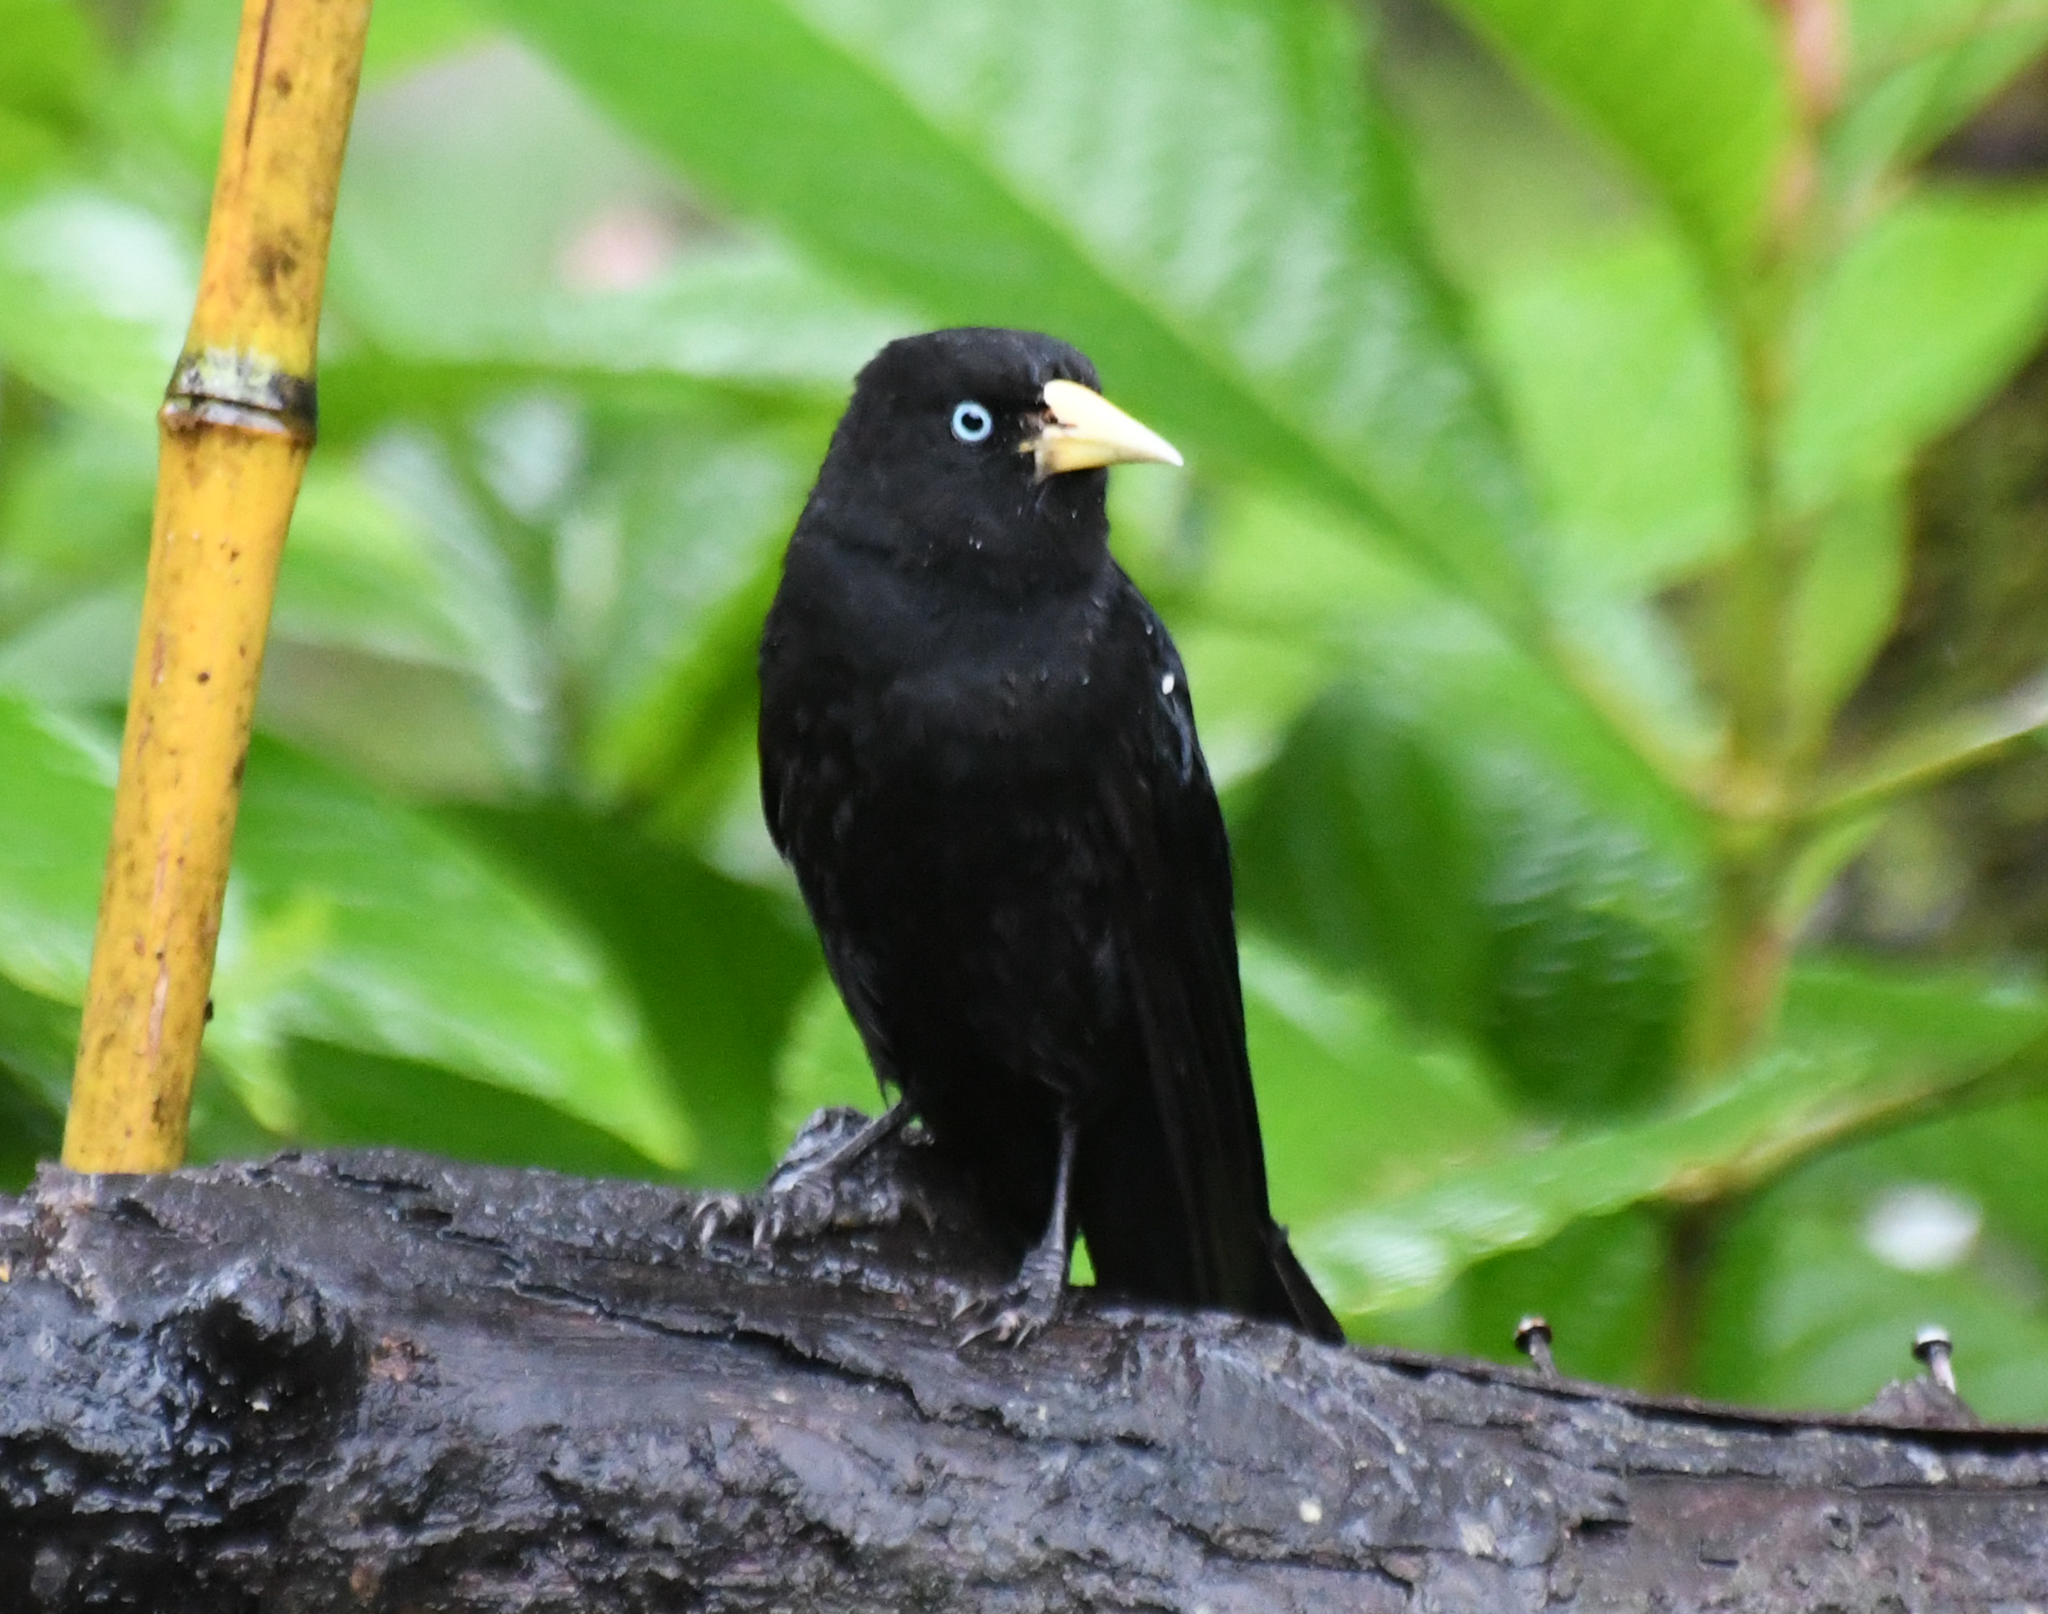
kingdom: Animalia
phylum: Chordata
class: Aves
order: Passeriformes
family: Icteridae
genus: Cacicus
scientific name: Cacicus uropygialis
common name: Scarlet-rumped cacique
